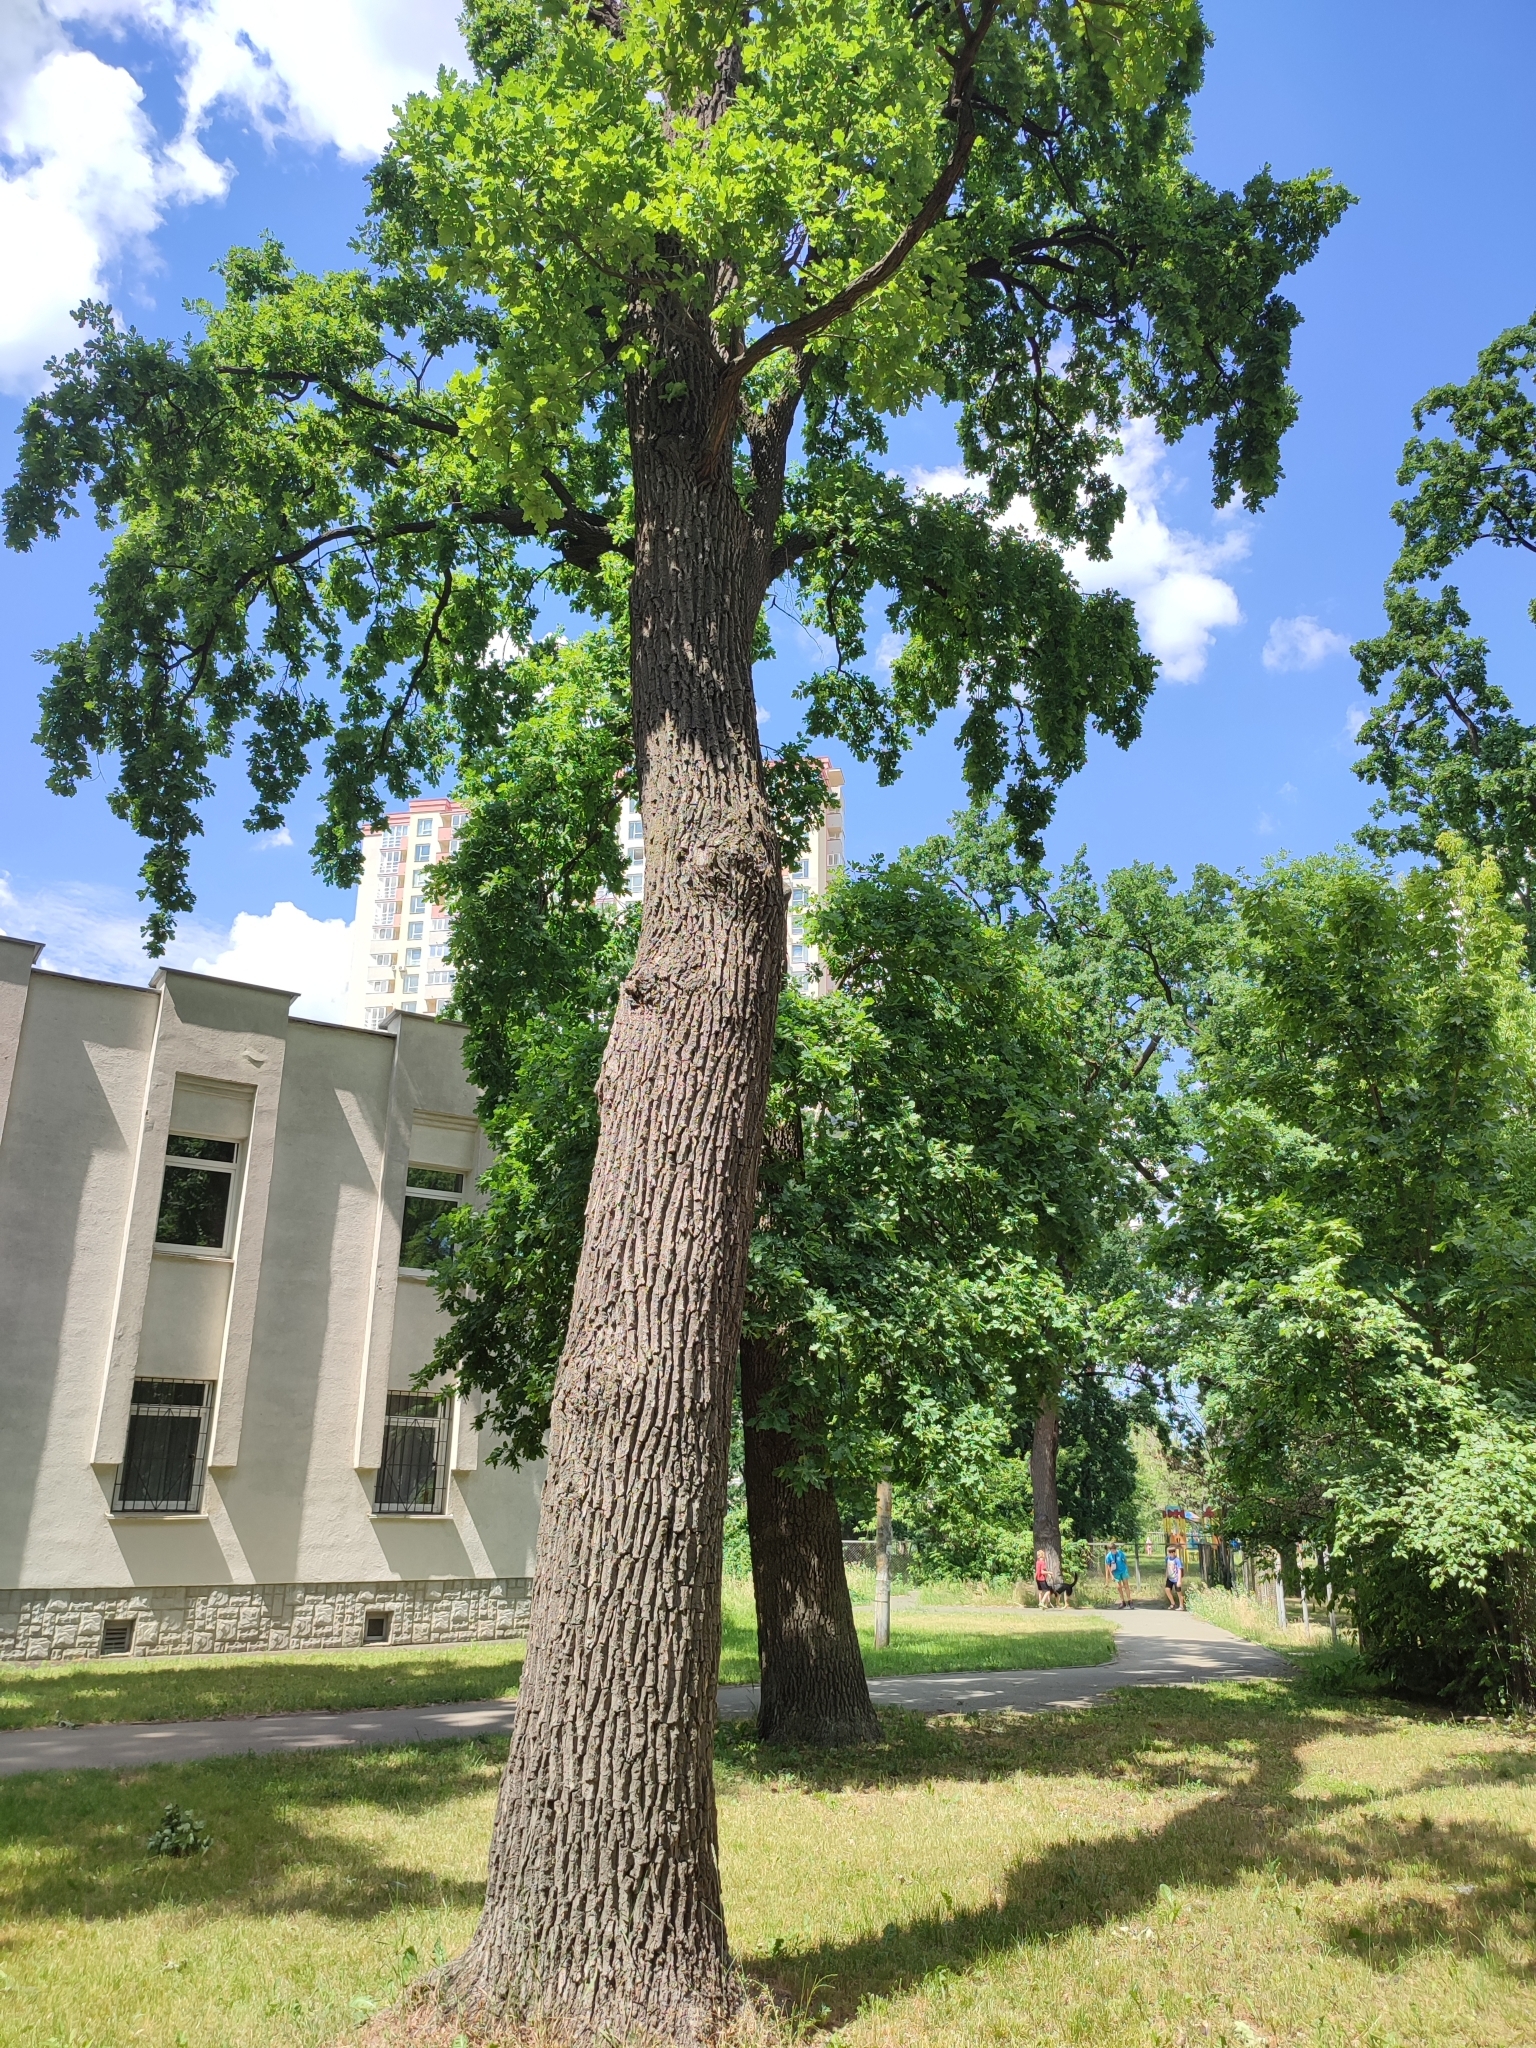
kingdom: Plantae
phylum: Tracheophyta
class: Magnoliopsida
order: Fagales
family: Fagaceae
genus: Quercus
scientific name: Quercus robur
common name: Pedunculate oak
